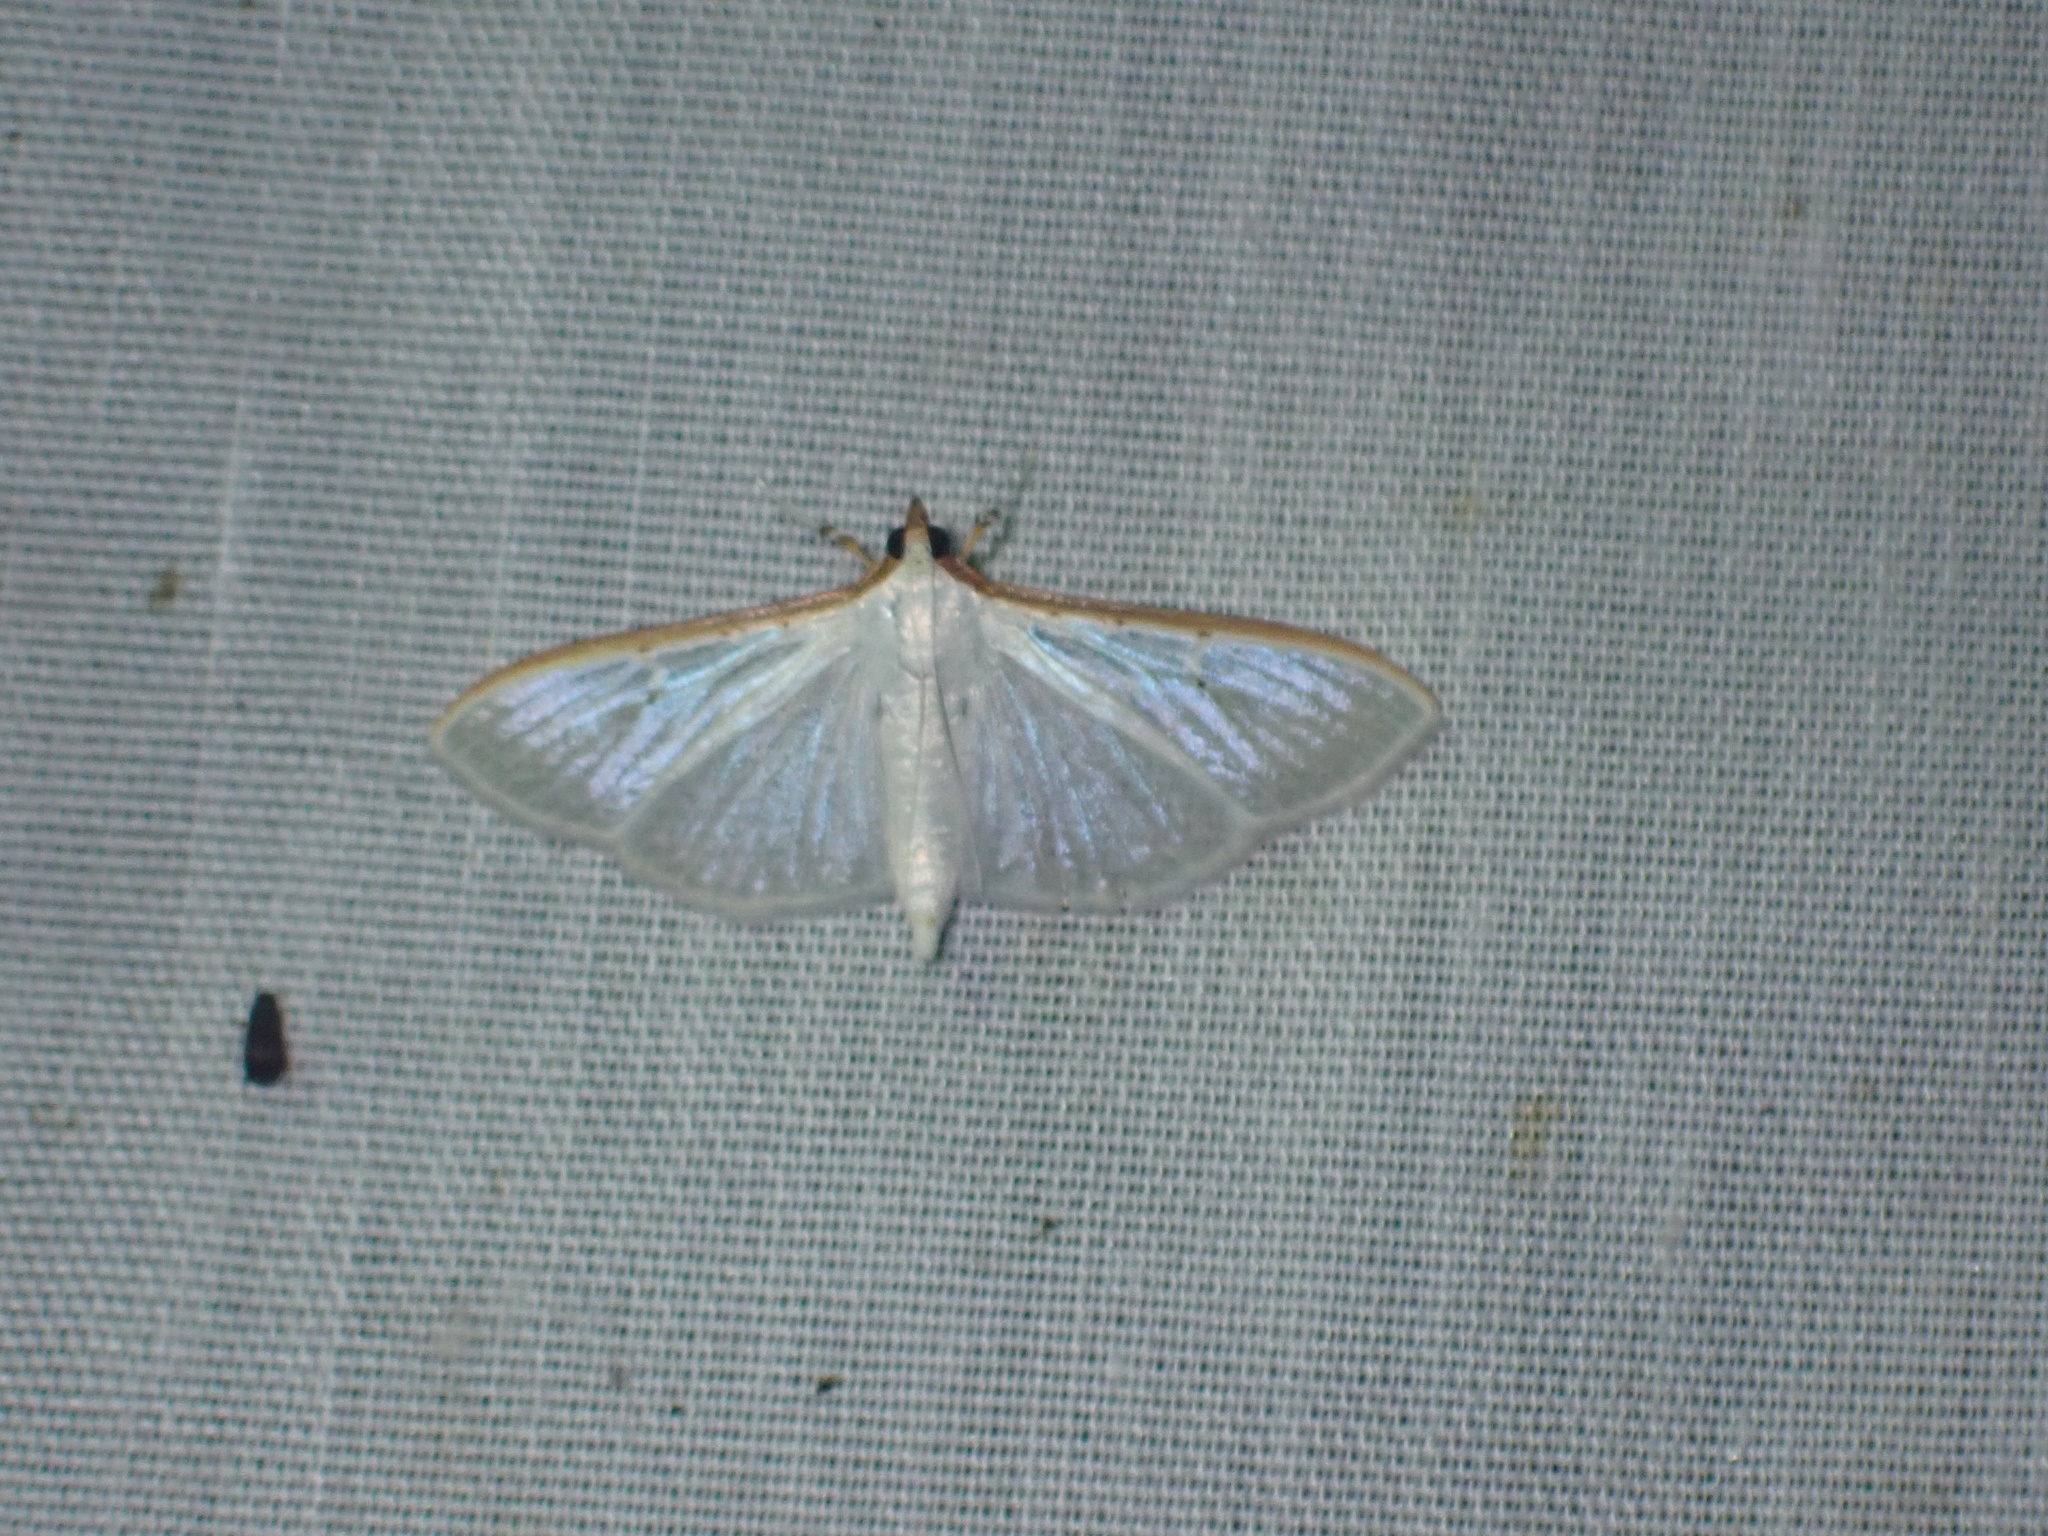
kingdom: Animalia
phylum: Arthropoda
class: Insecta
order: Lepidoptera
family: Crambidae
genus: Palpita
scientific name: Palpita vitrealis
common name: Olive-tree pearl
